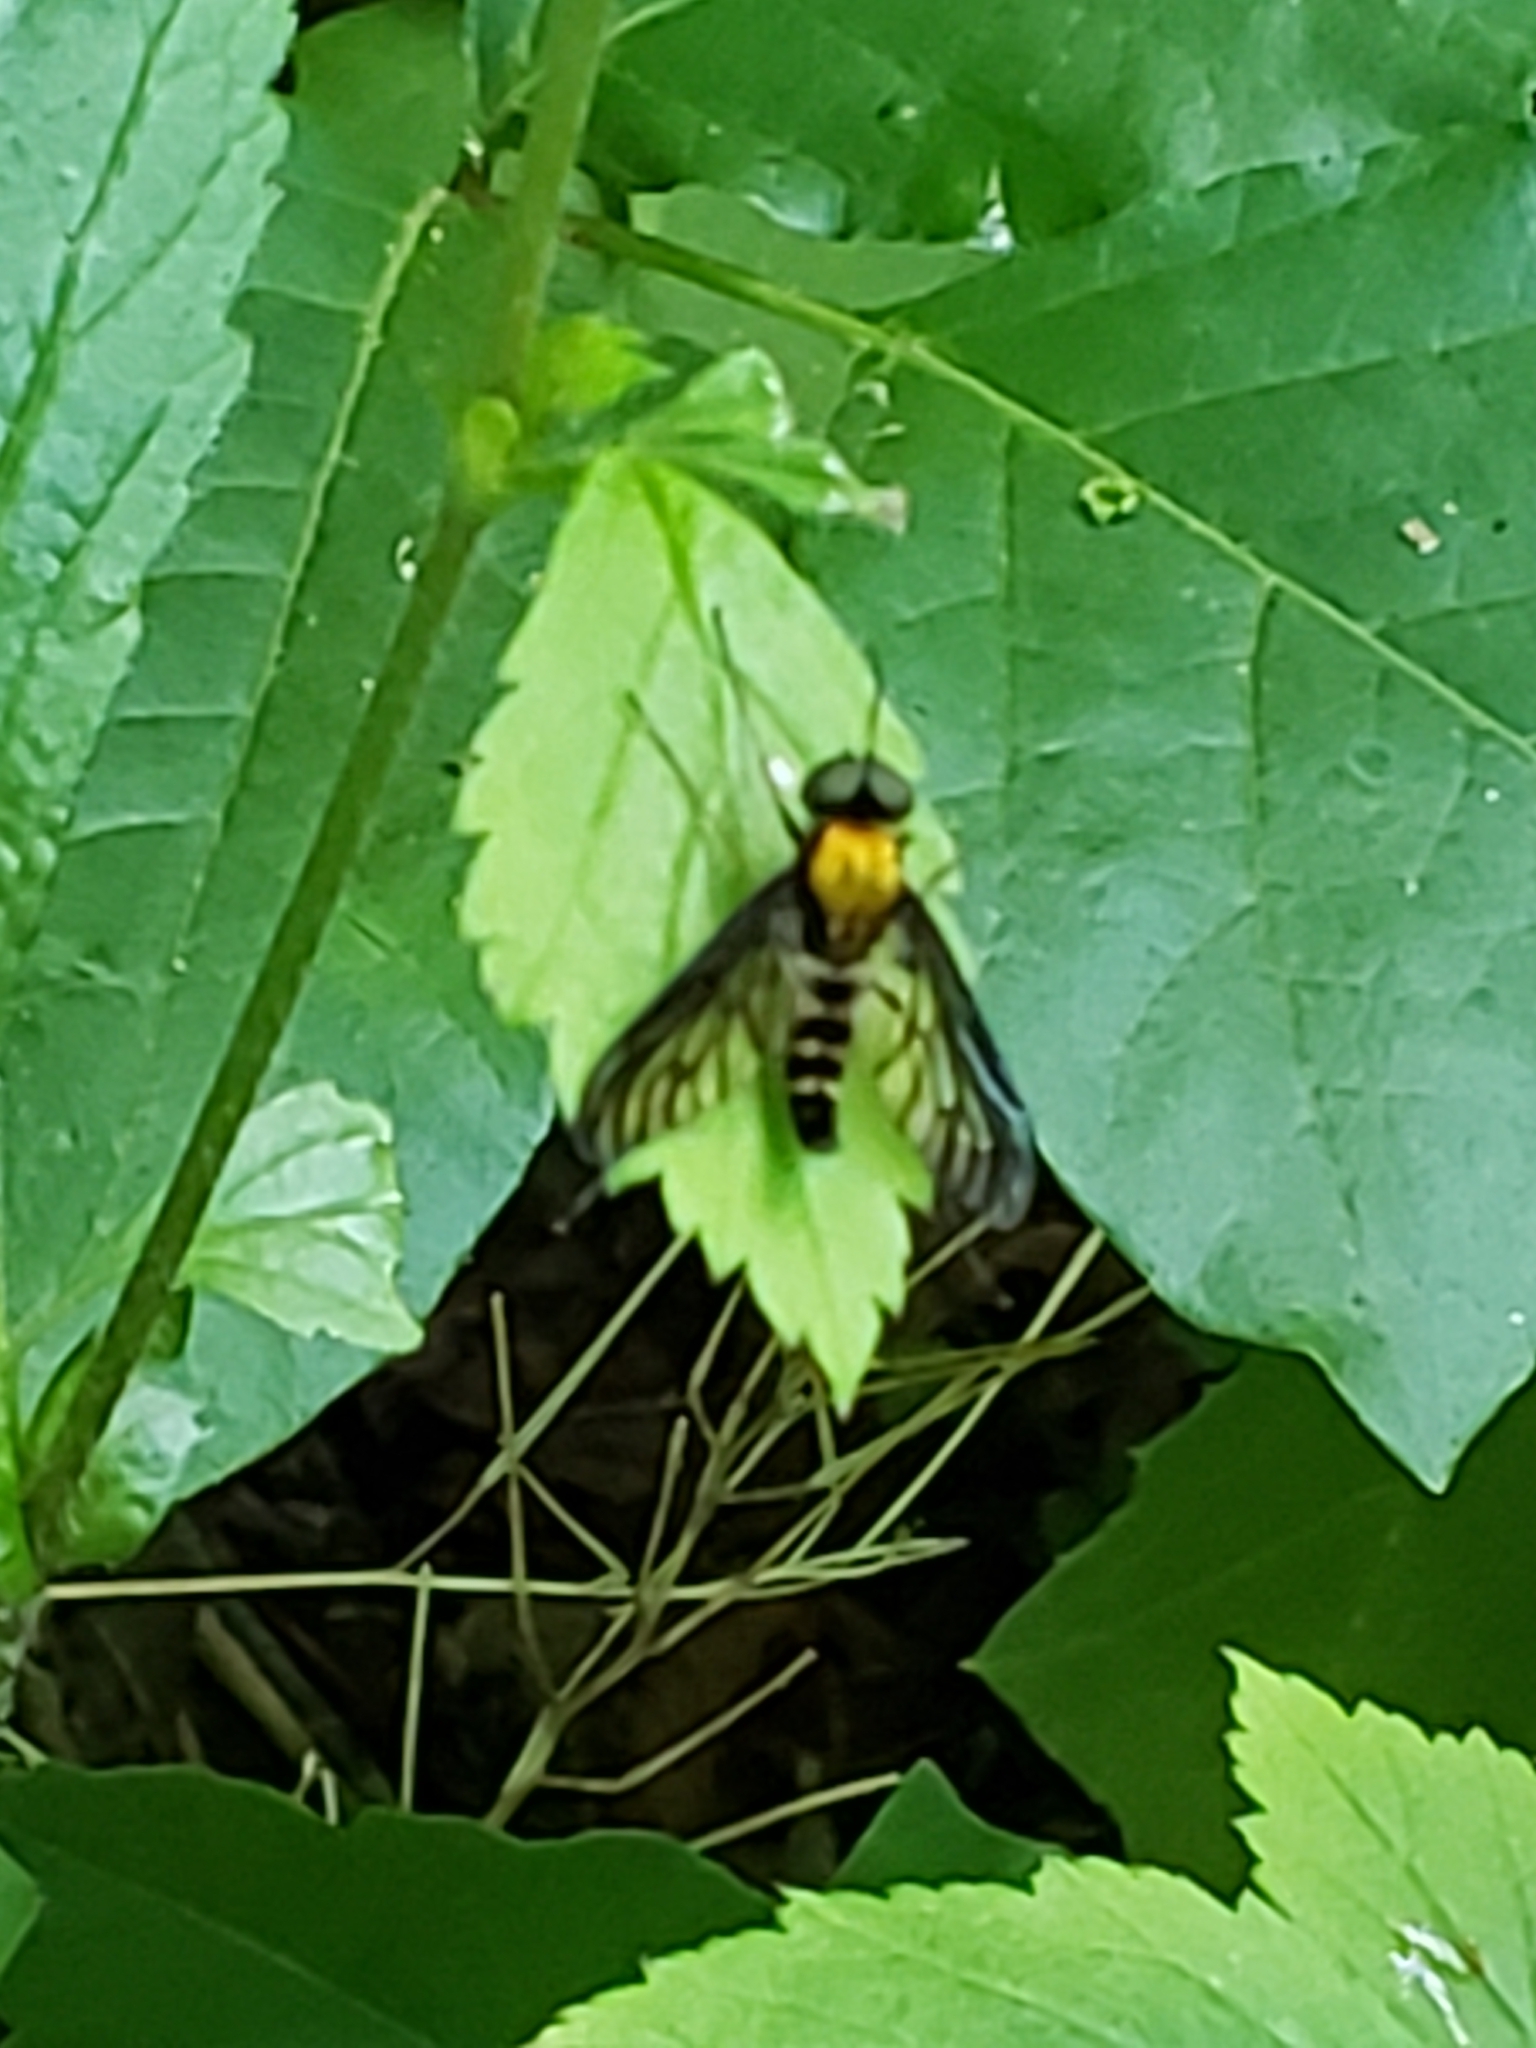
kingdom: Animalia
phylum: Arthropoda
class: Insecta
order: Diptera
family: Rhagionidae
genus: Chrysopilus
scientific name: Chrysopilus thoracicus
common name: Golden-backed snipe fly
